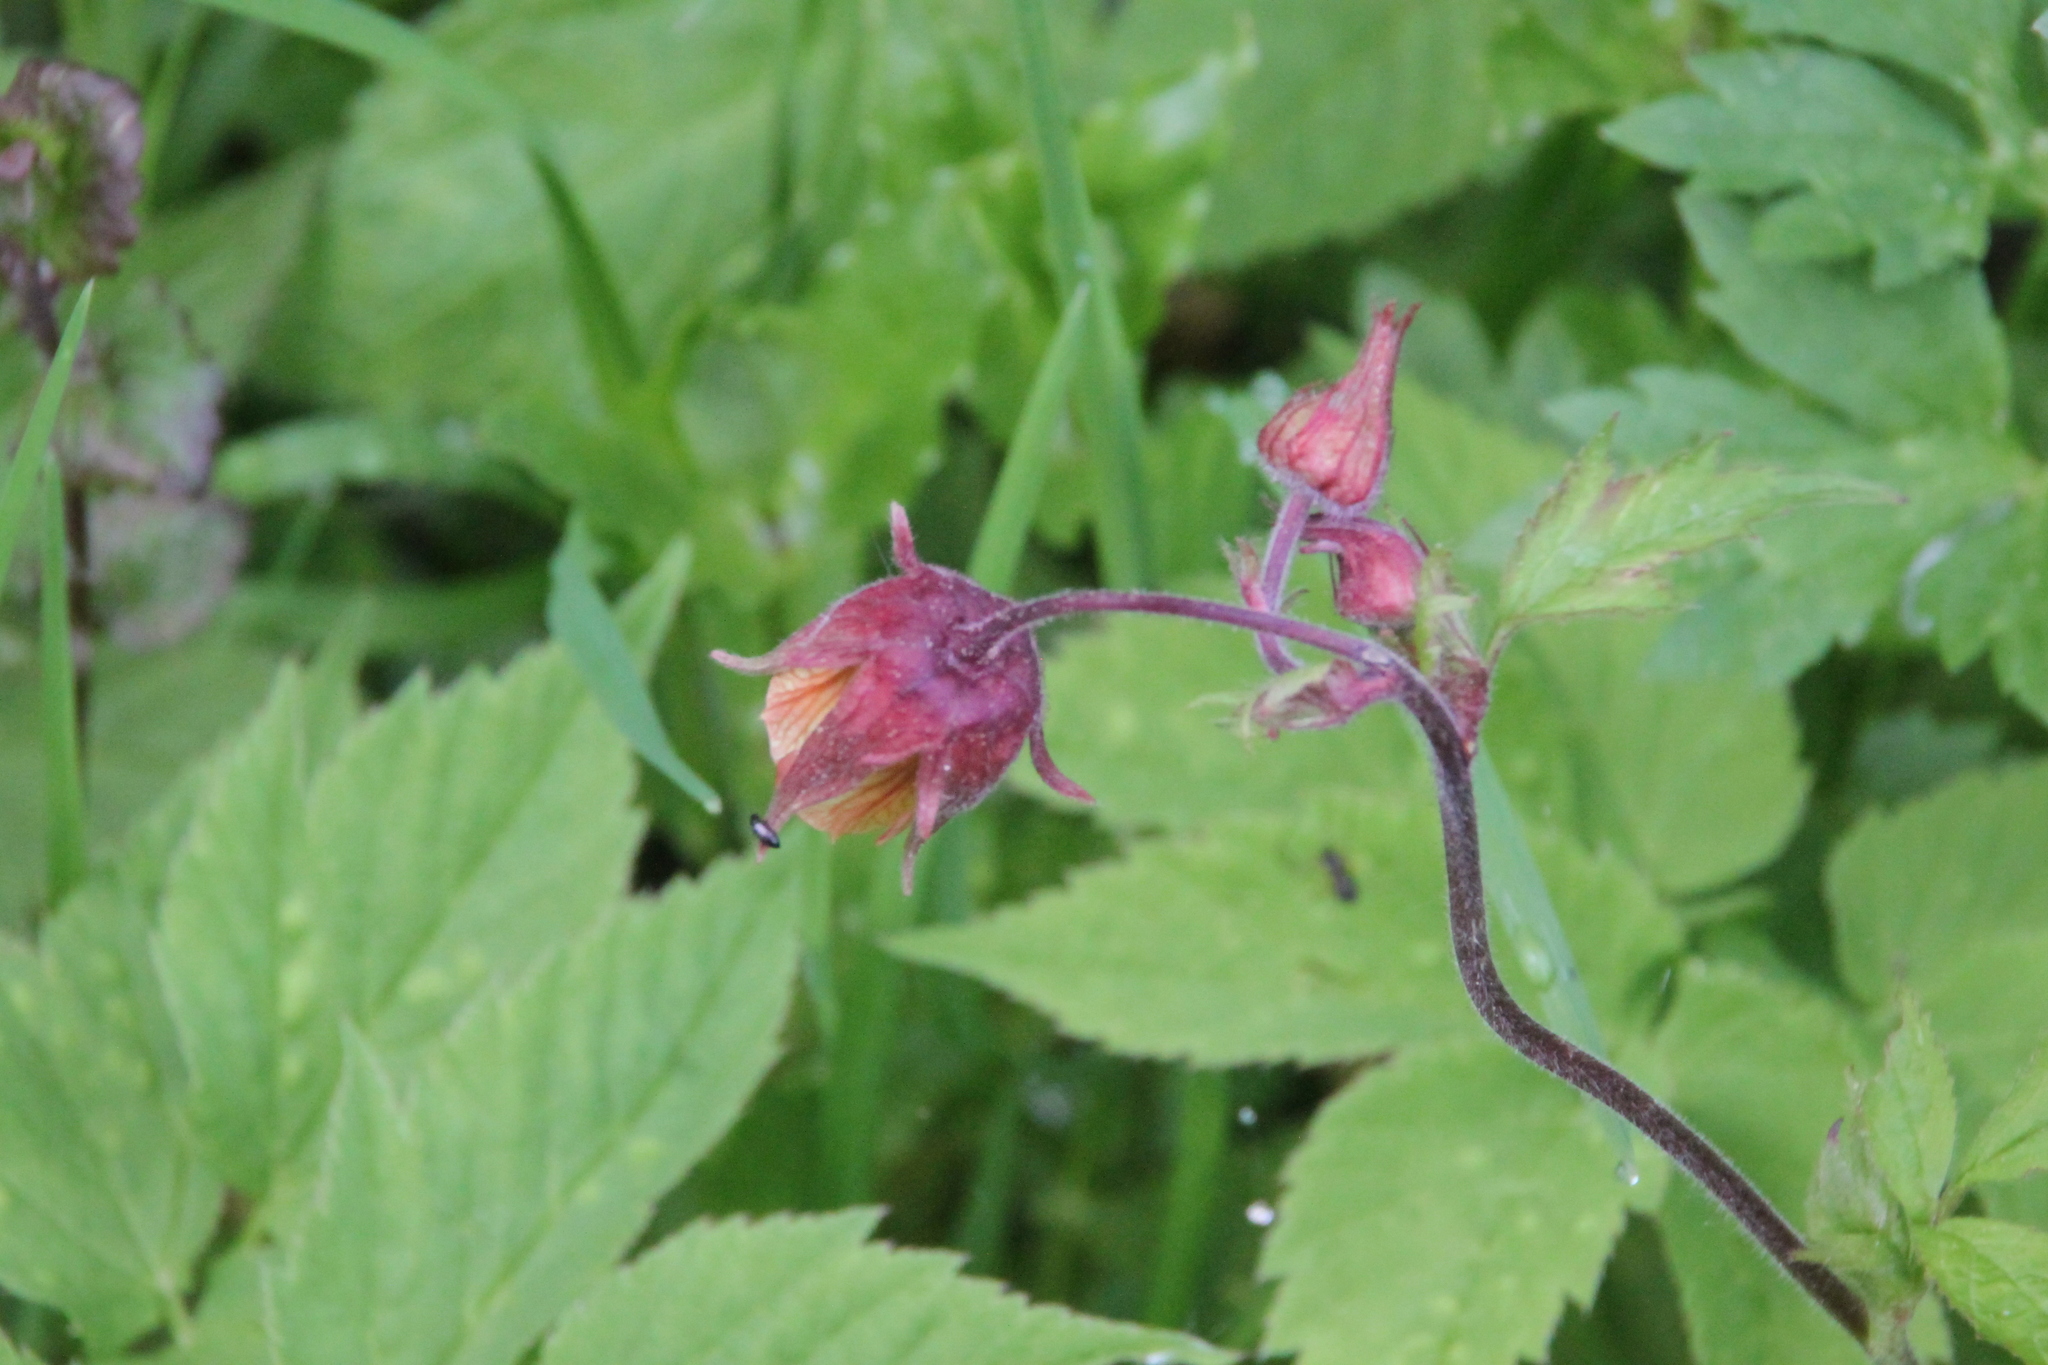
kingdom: Plantae
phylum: Tracheophyta
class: Magnoliopsida
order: Rosales
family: Rosaceae
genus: Geum
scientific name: Geum rivale
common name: Water avens
